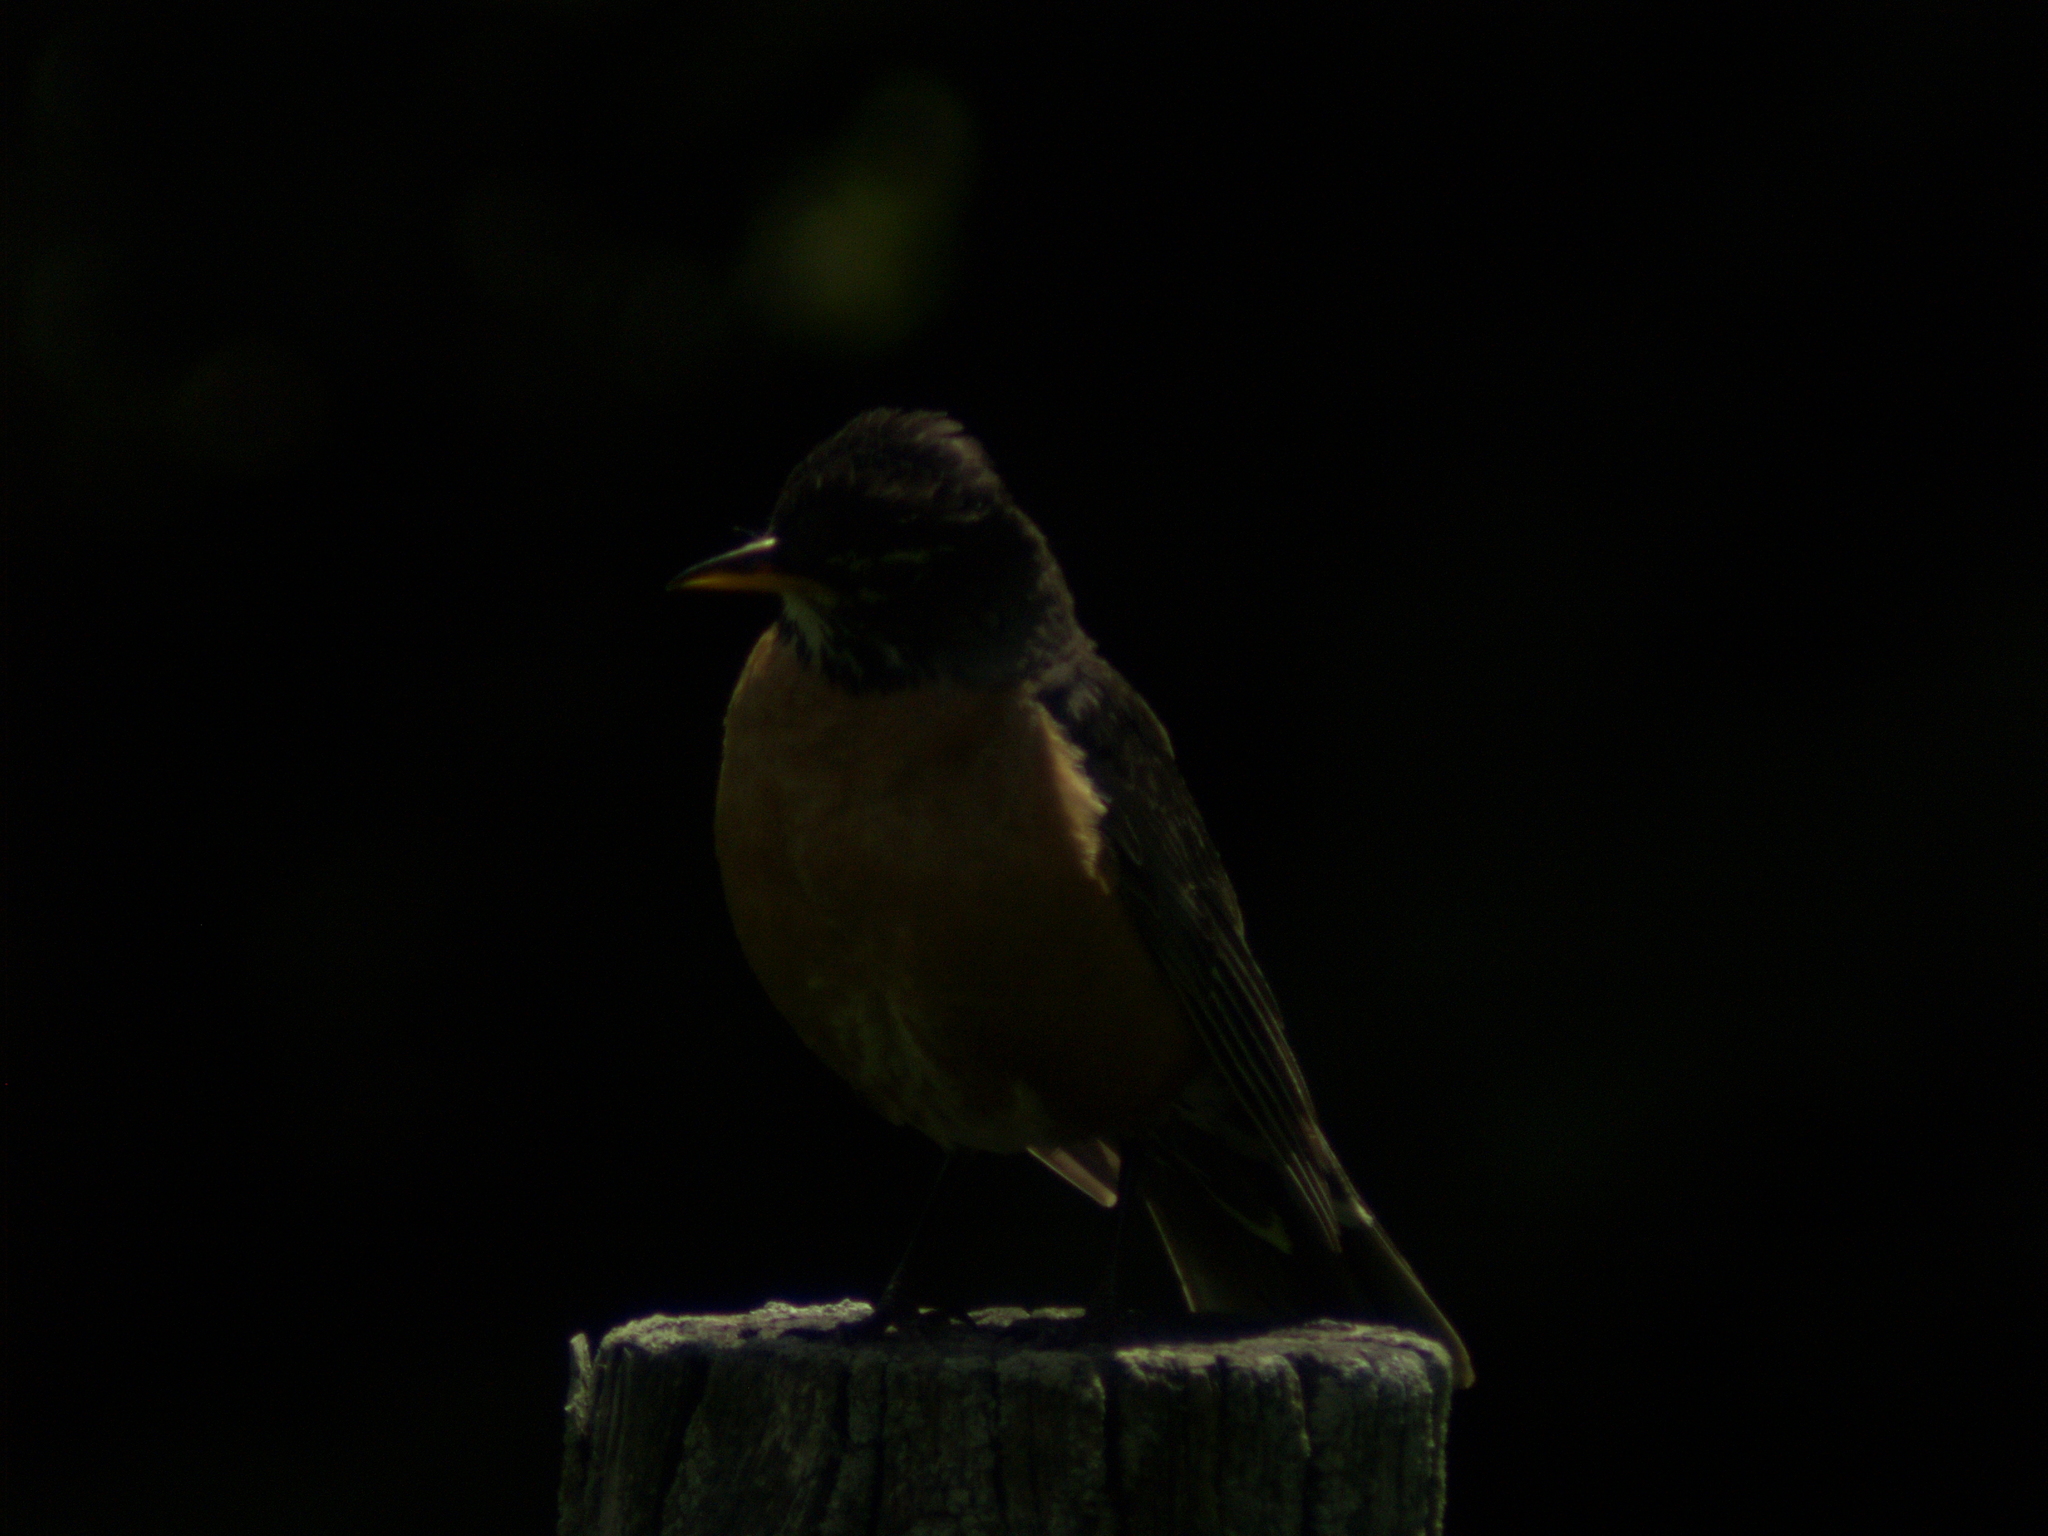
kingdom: Animalia
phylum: Chordata
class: Aves
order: Passeriformes
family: Turdidae
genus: Turdus
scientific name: Turdus migratorius
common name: American robin
